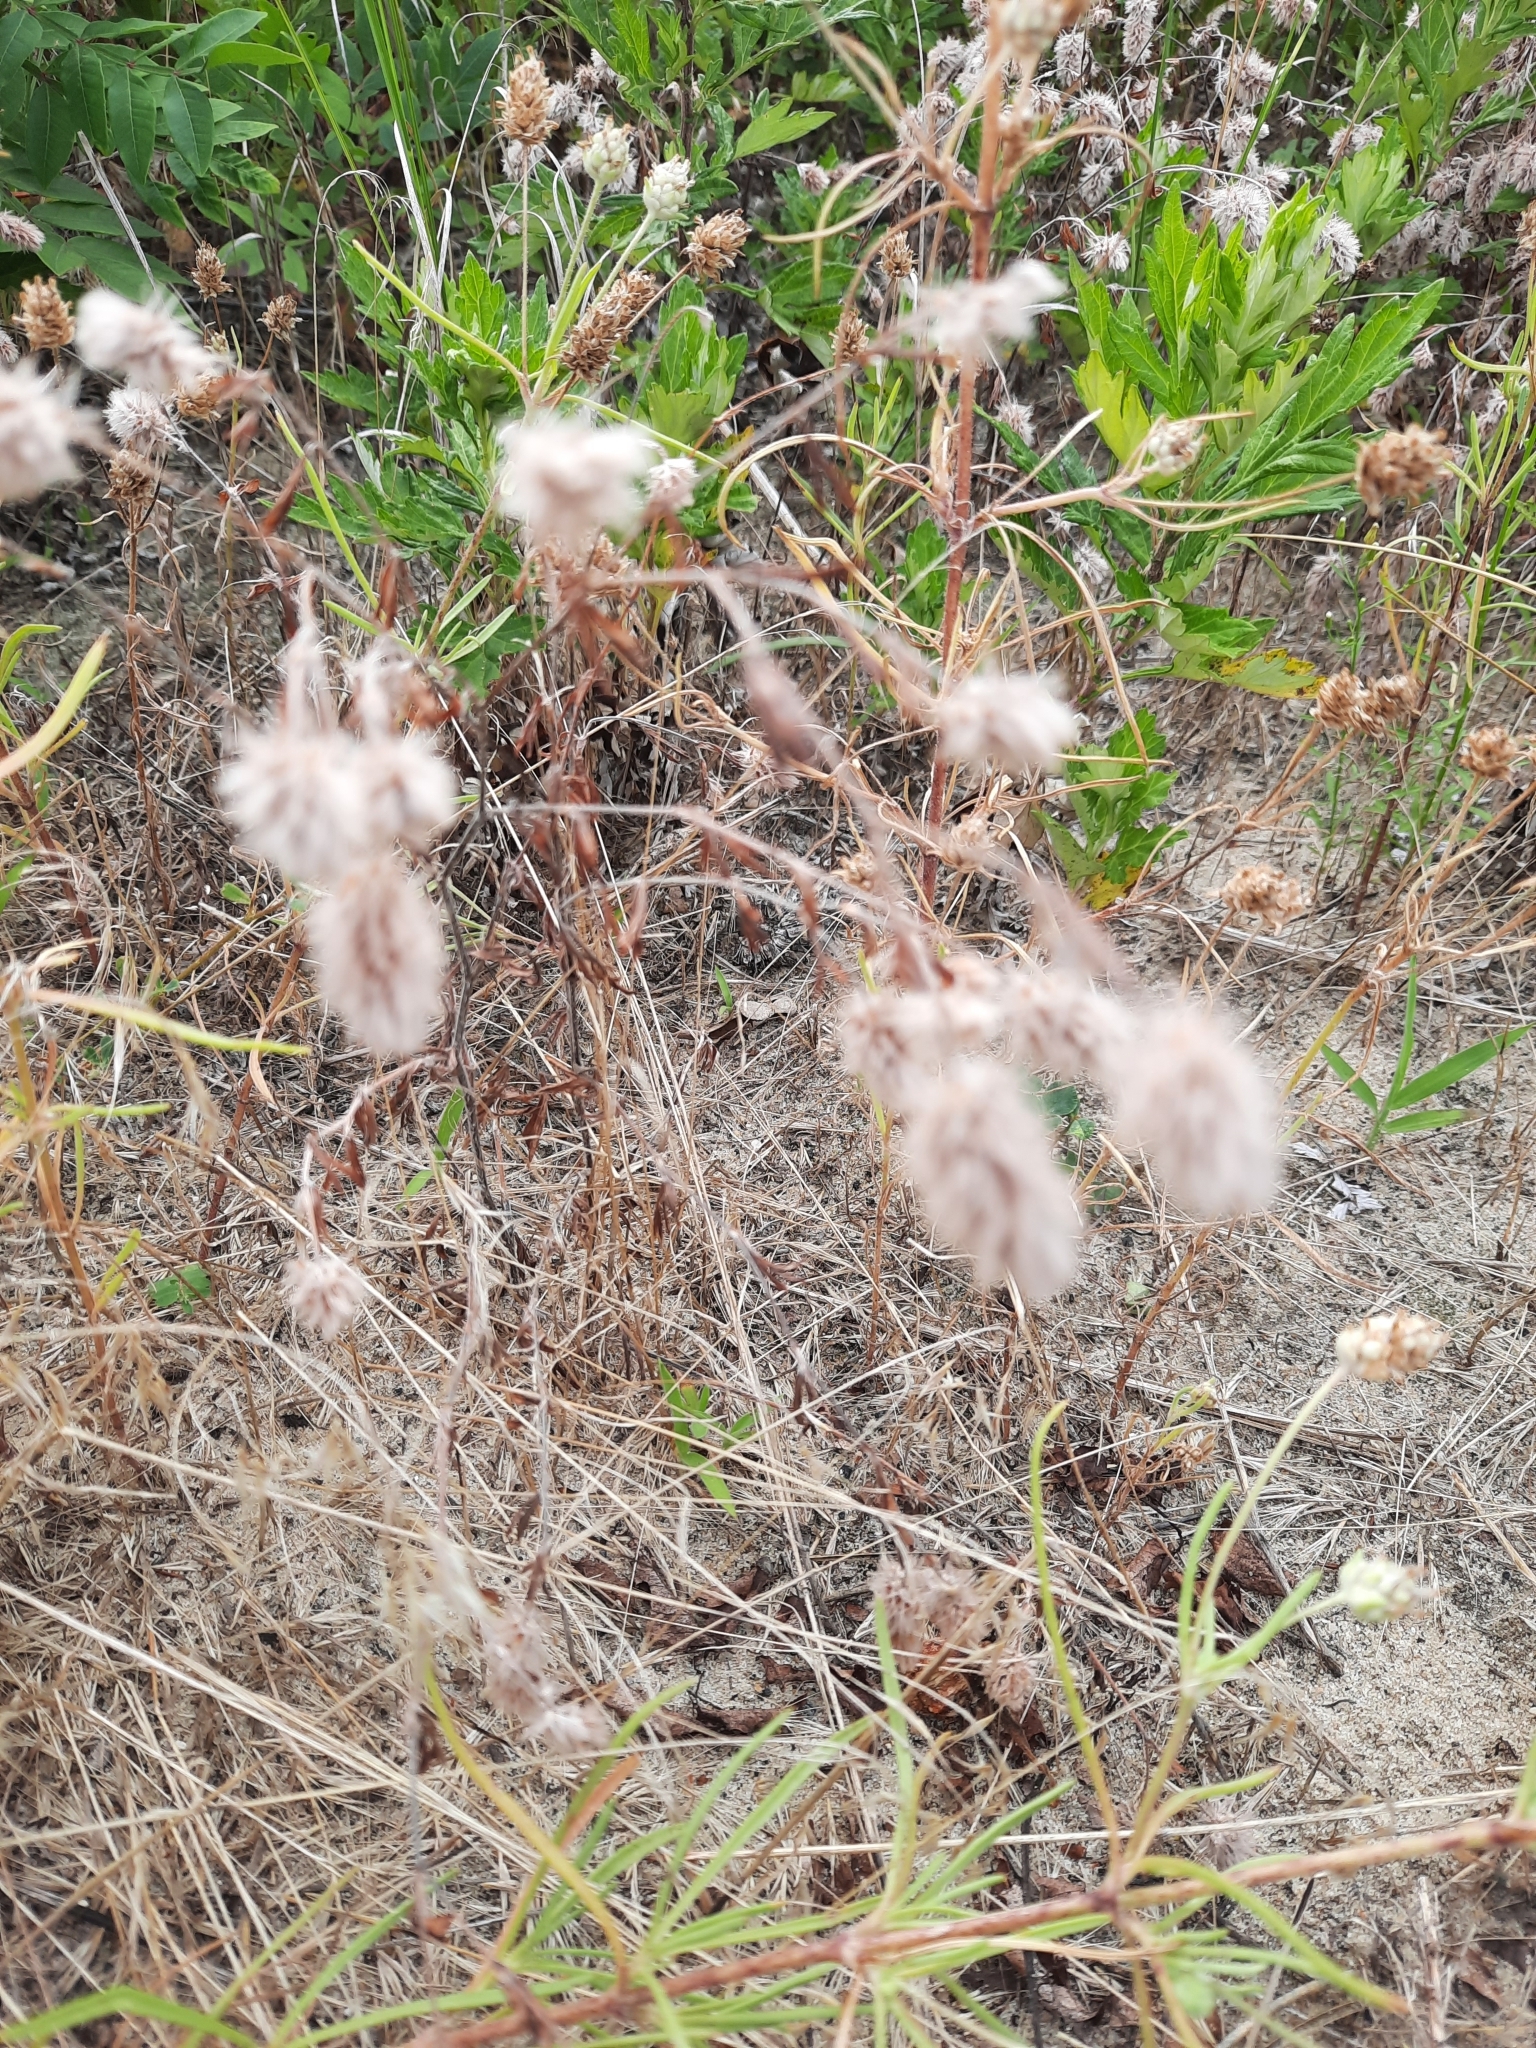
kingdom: Plantae
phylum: Tracheophyta
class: Magnoliopsida
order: Fabales
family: Fabaceae
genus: Trifolium
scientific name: Trifolium arvense
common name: Hare's-foot clover
